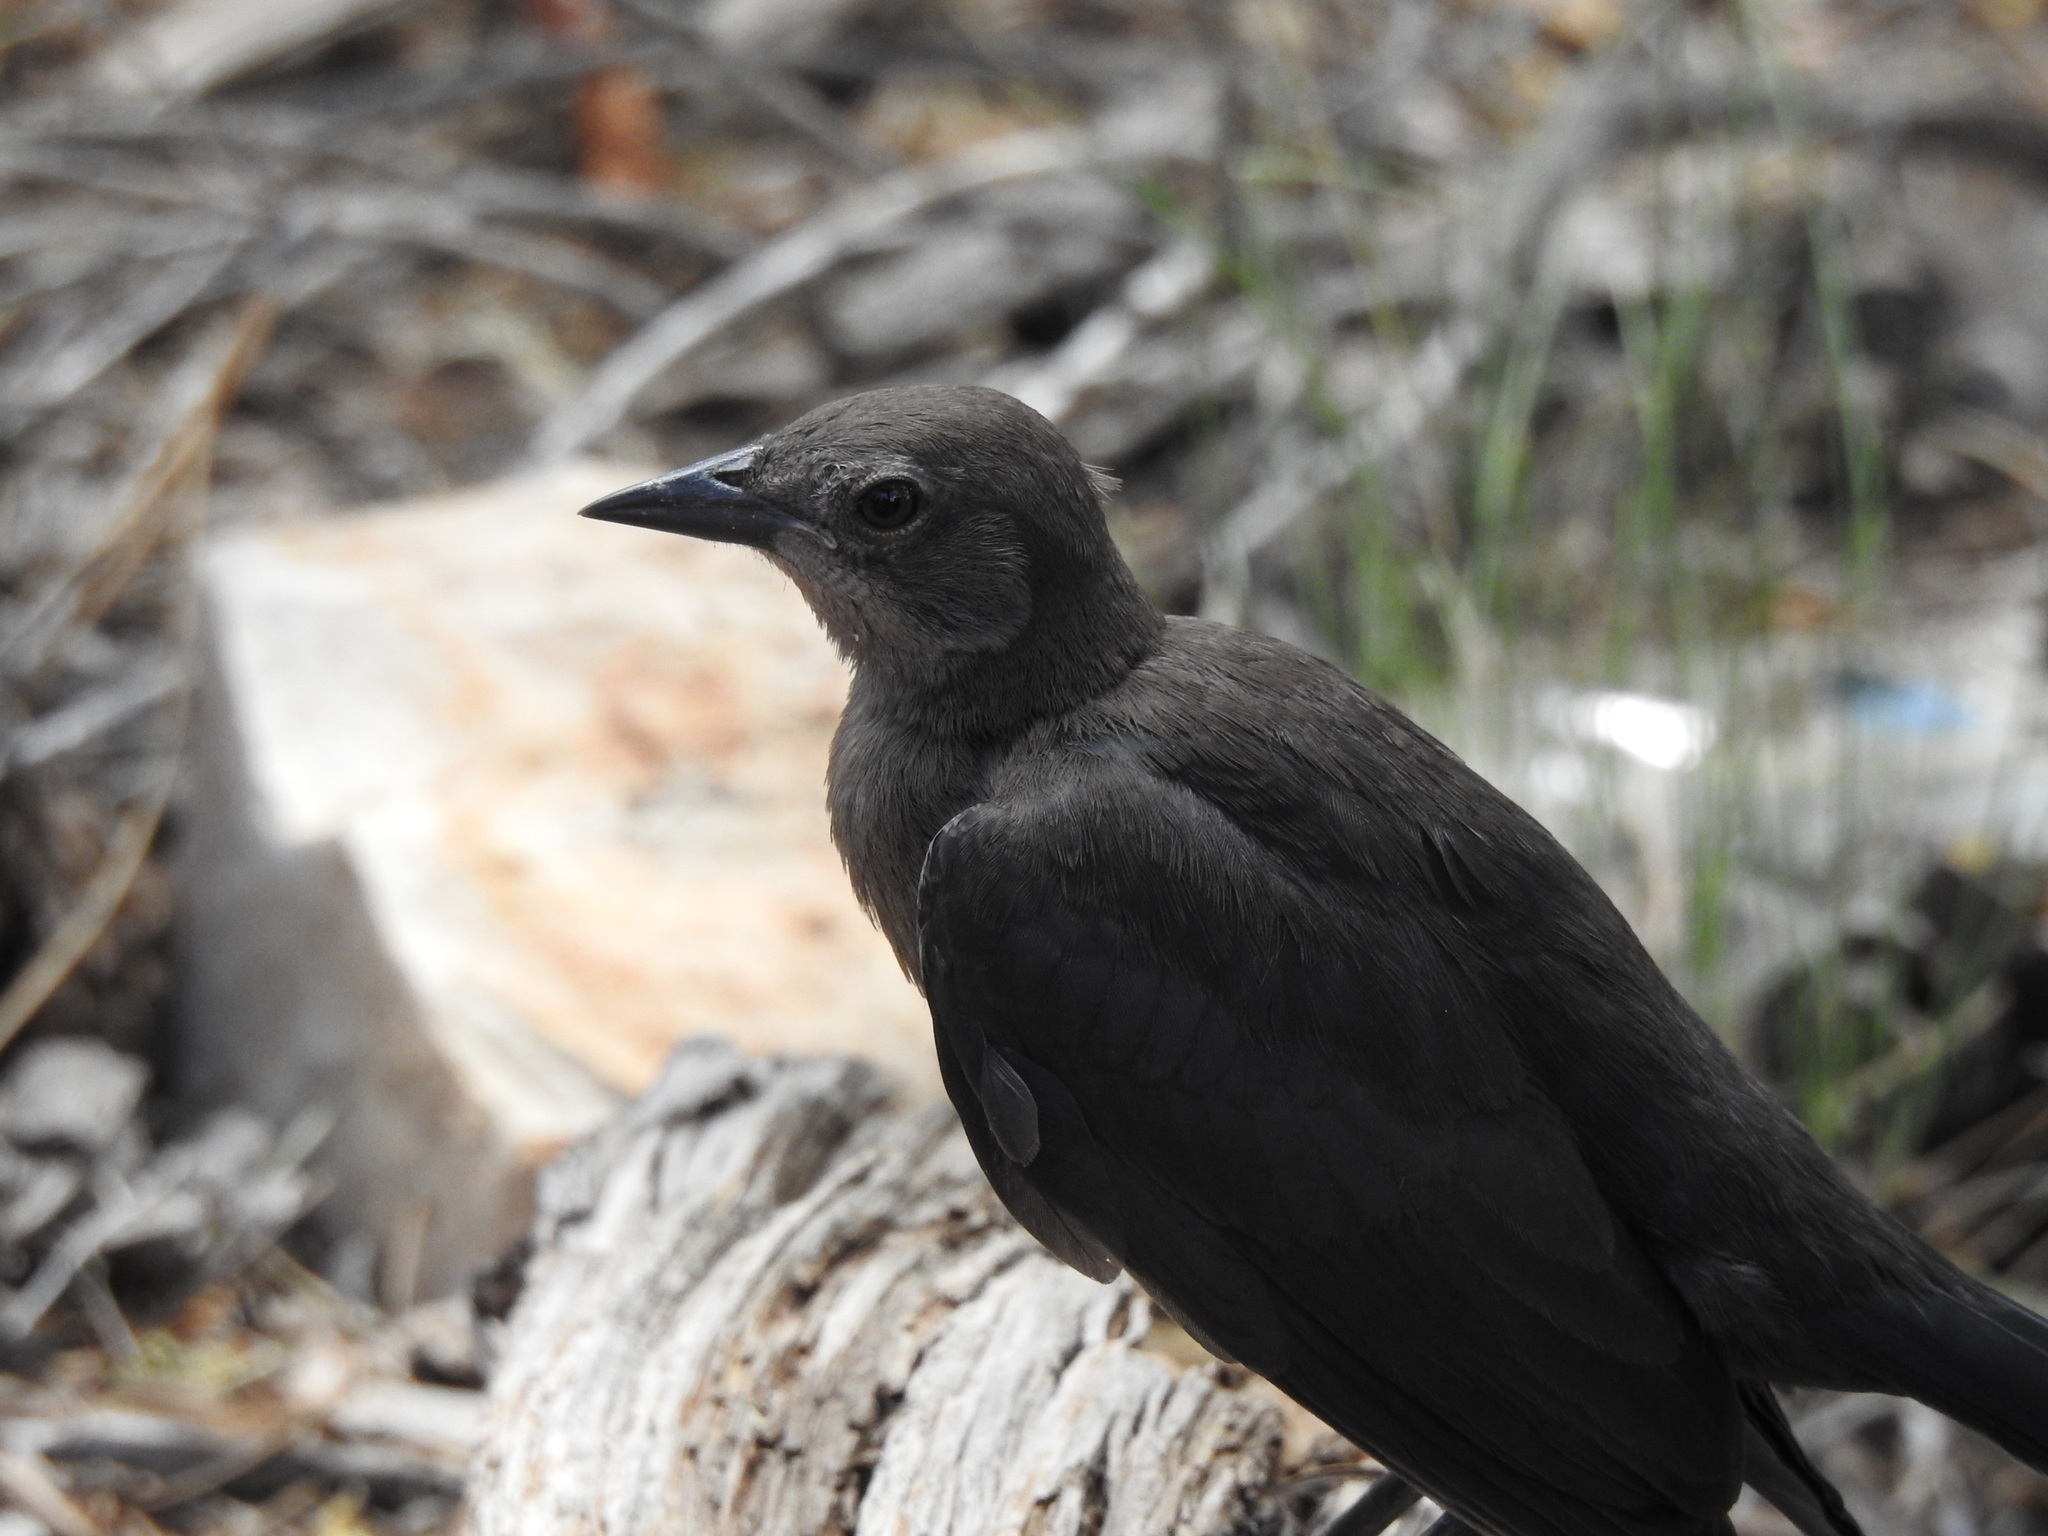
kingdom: Animalia
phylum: Chordata
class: Aves
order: Passeriformes
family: Icteridae
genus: Euphagus
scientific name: Euphagus cyanocephalus
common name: Brewer's blackbird
